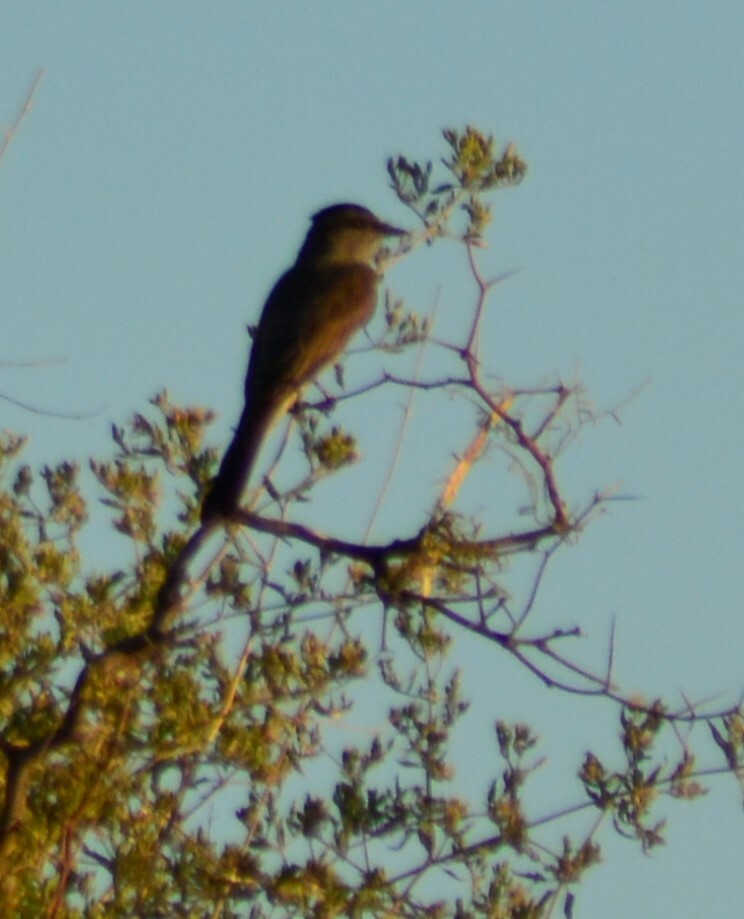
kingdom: Animalia
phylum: Chordata
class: Aves
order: Passeriformes
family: Tyrannidae
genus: Empidonomus
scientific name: Empidonomus aurantioatrocristatus
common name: Crowned slaty flycatcher
